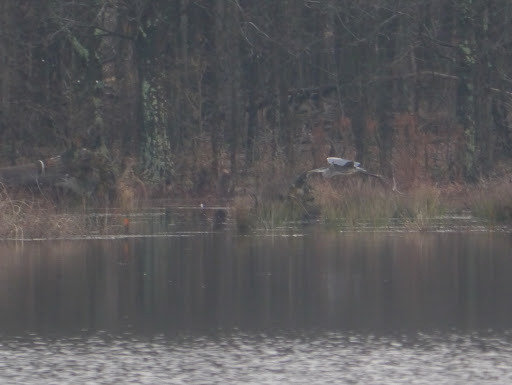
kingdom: Animalia
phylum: Chordata
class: Aves
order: Pelecaniformes
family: Ardeidae
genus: Ardea
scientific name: Ardea herodias
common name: Great blue heron
